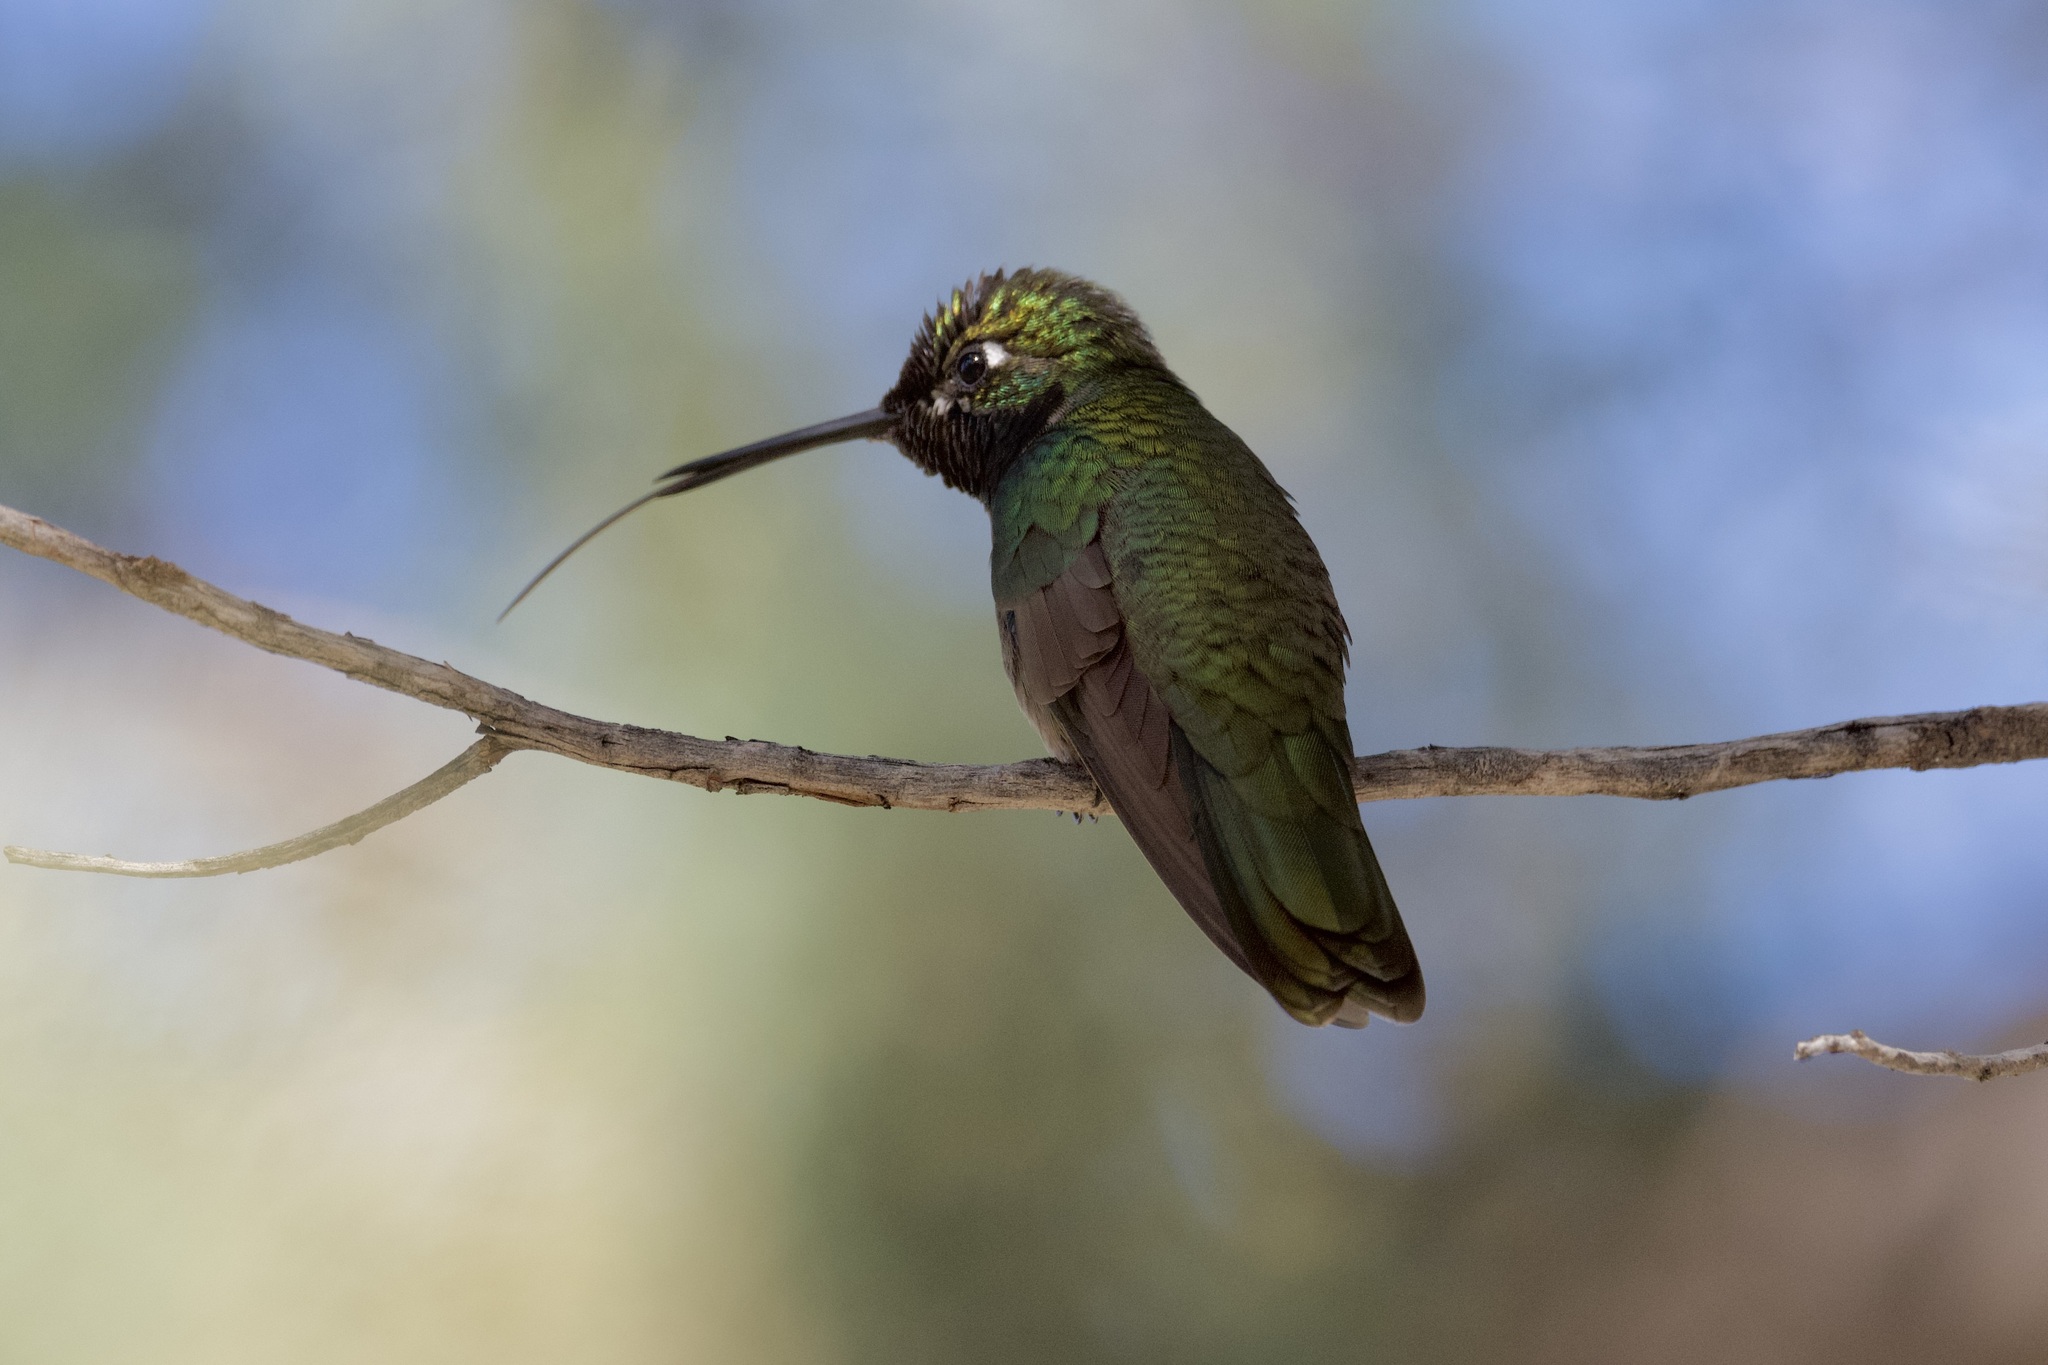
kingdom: Animalia
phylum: Chordata
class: Aves
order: Apodiformes
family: Trochilidae
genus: Eugenes
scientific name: Eugenes fulgens
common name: Magnificent hummingbird
